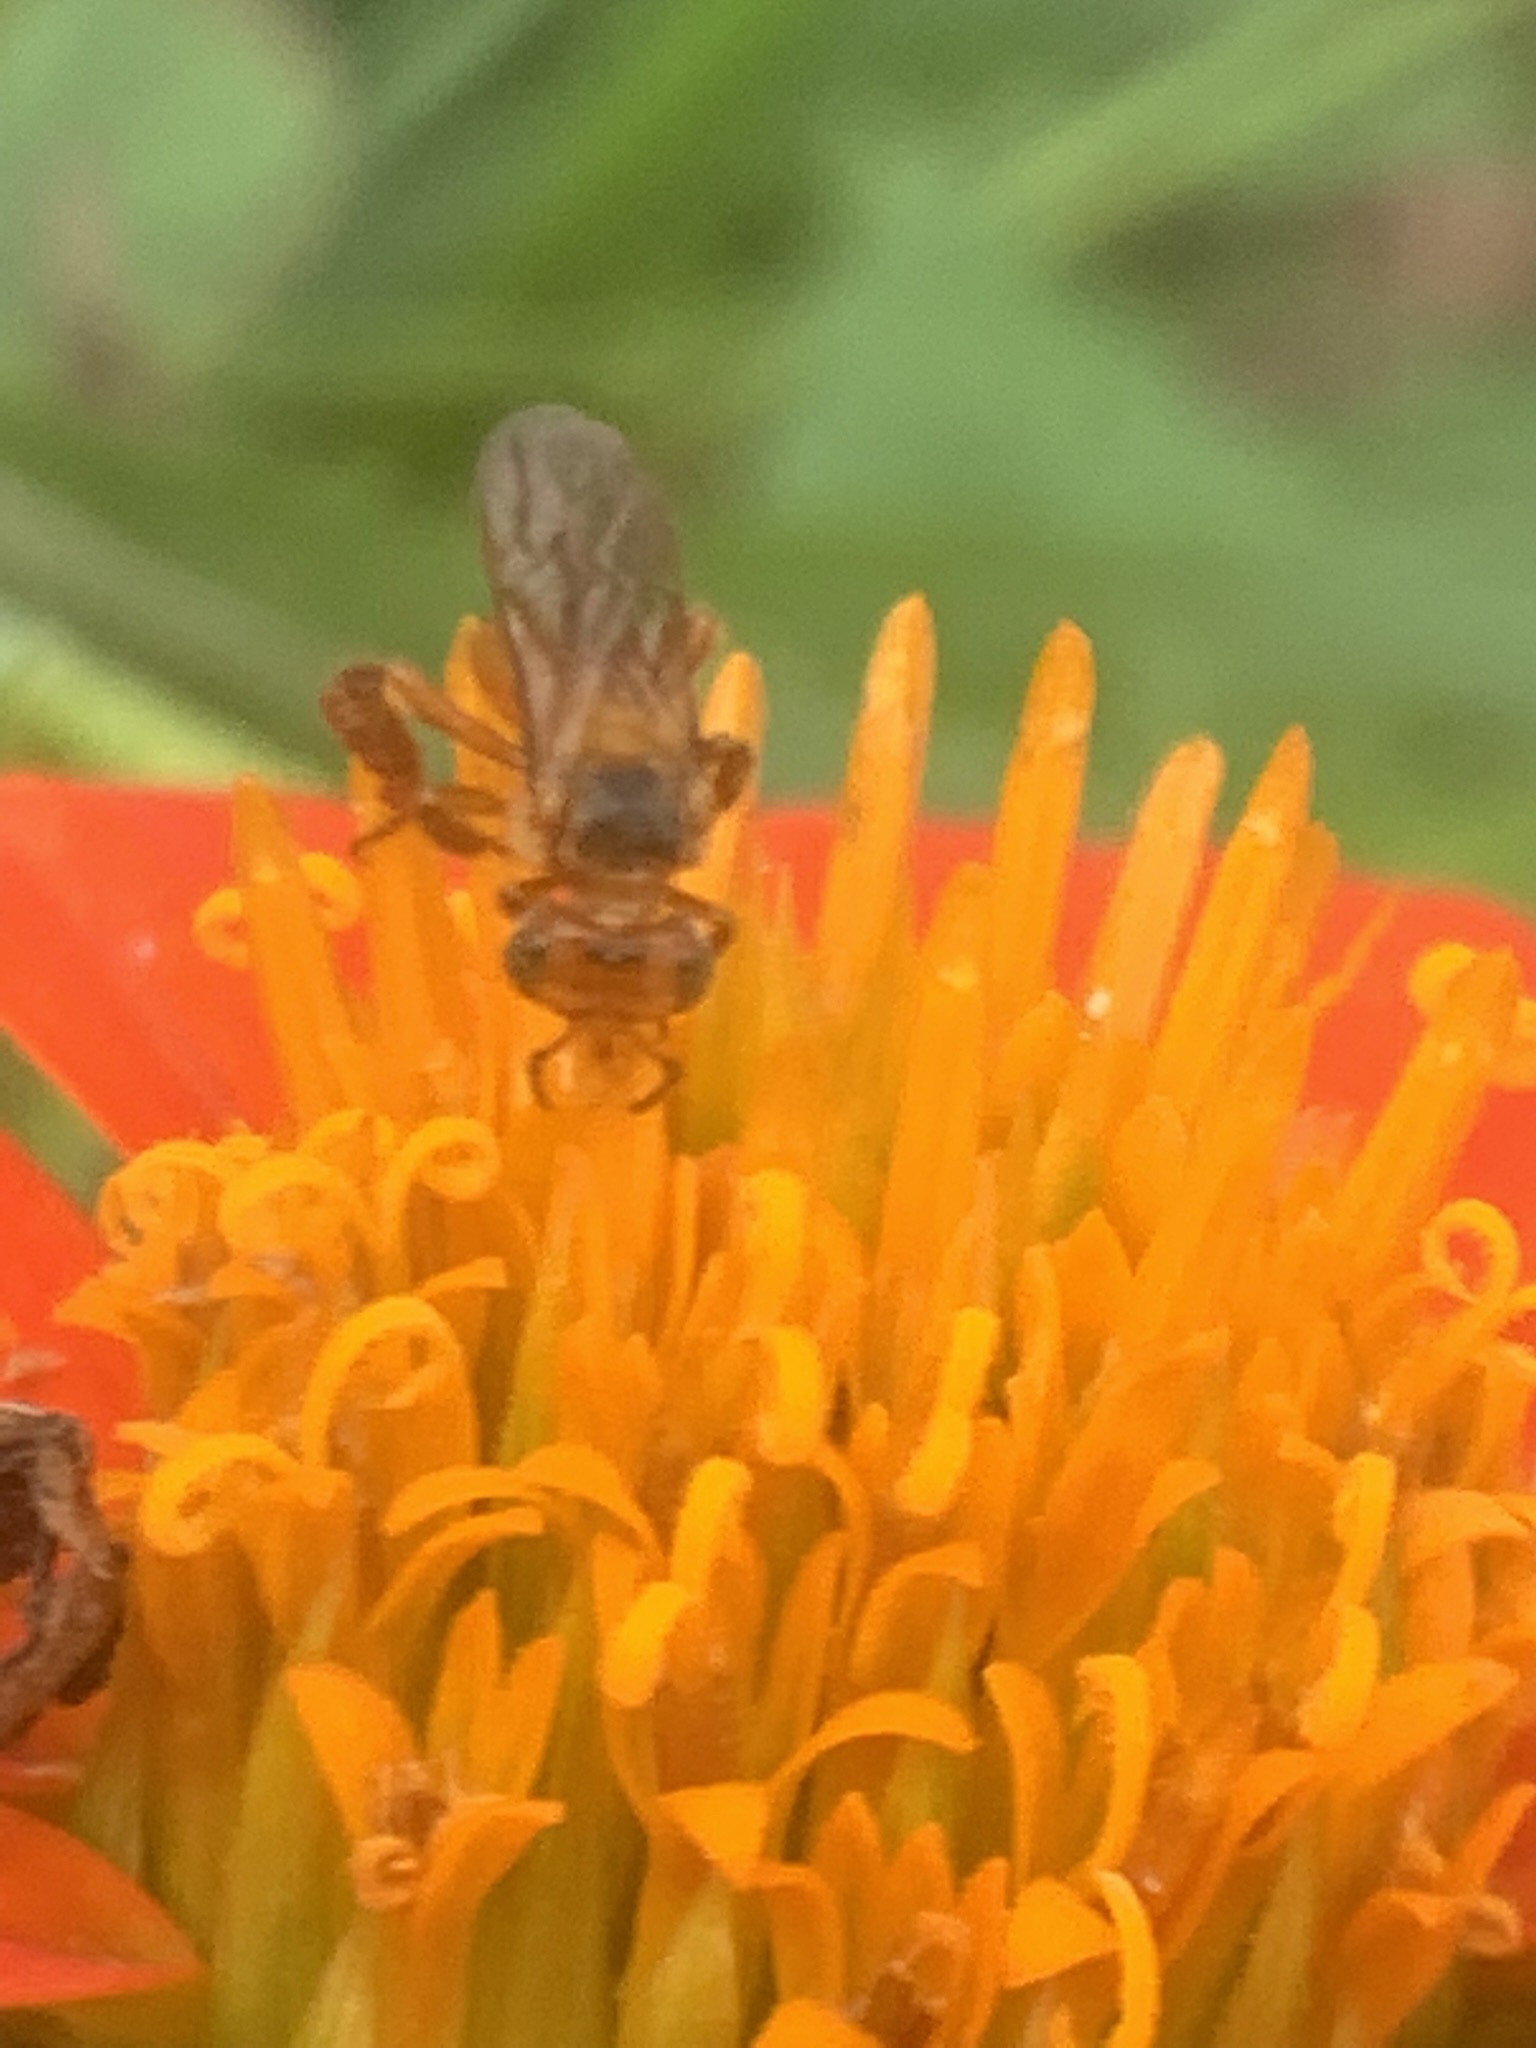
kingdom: Animalia
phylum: Arthropoda
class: Insecta
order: Hymenoptera
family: Apidae
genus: Trigona
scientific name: Trigona chanchamayoensis
